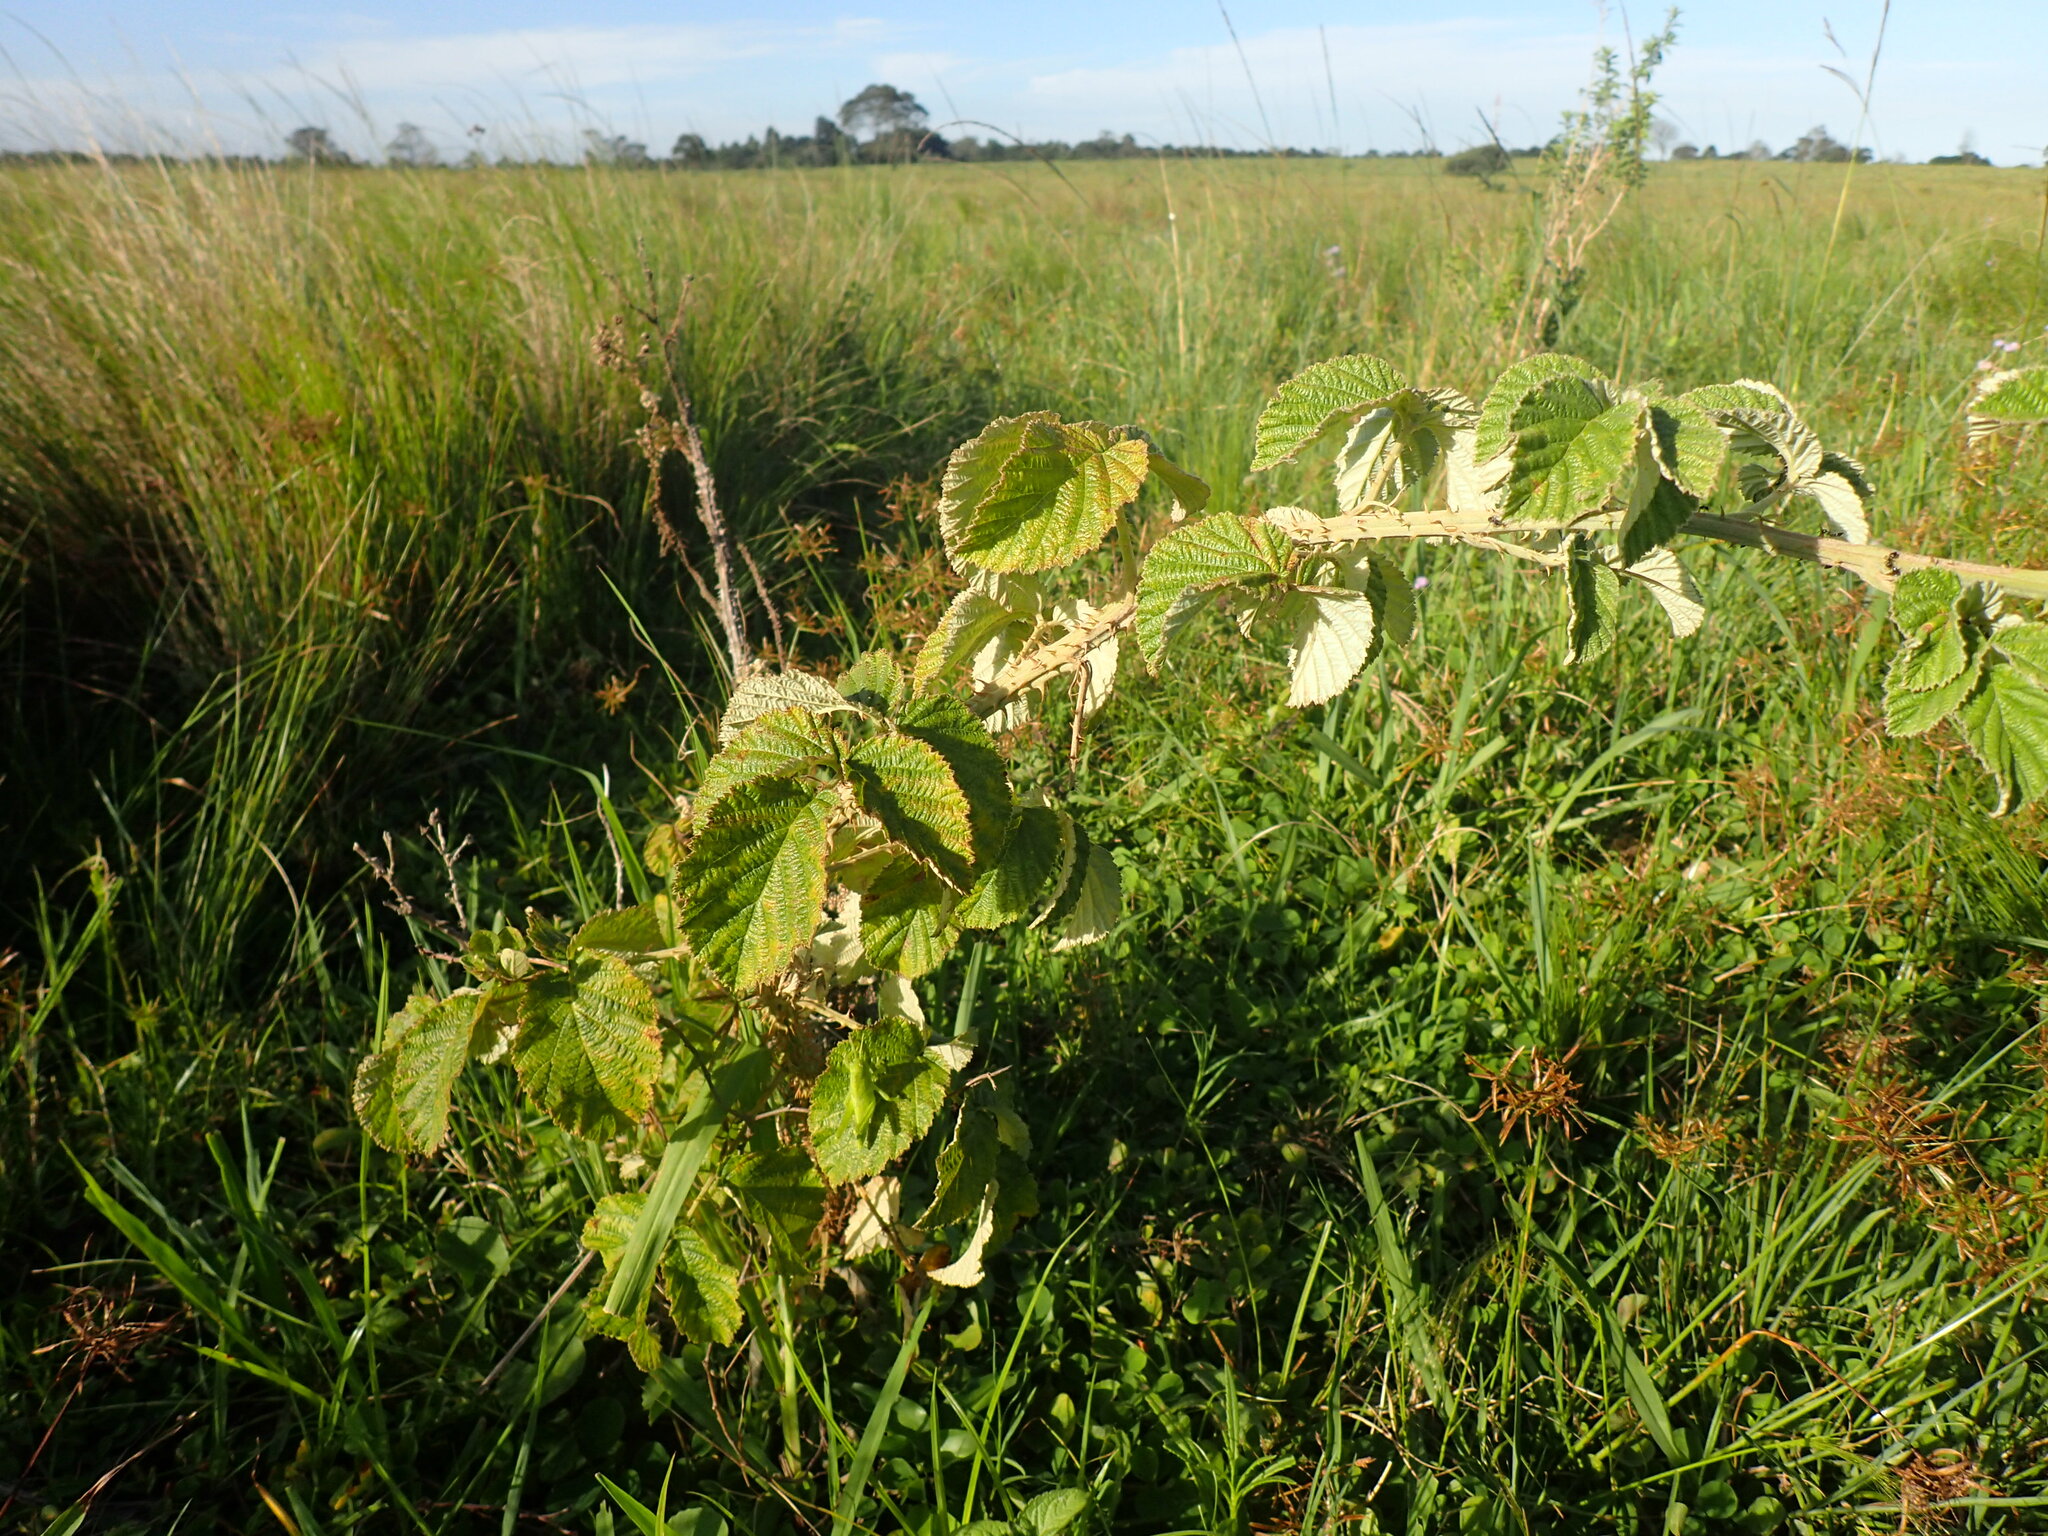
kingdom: Plantae
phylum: Tracheophyta
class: Magnoliopsida
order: Rosales
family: Rosaceae
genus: Rubus
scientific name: Rubus rigidus
